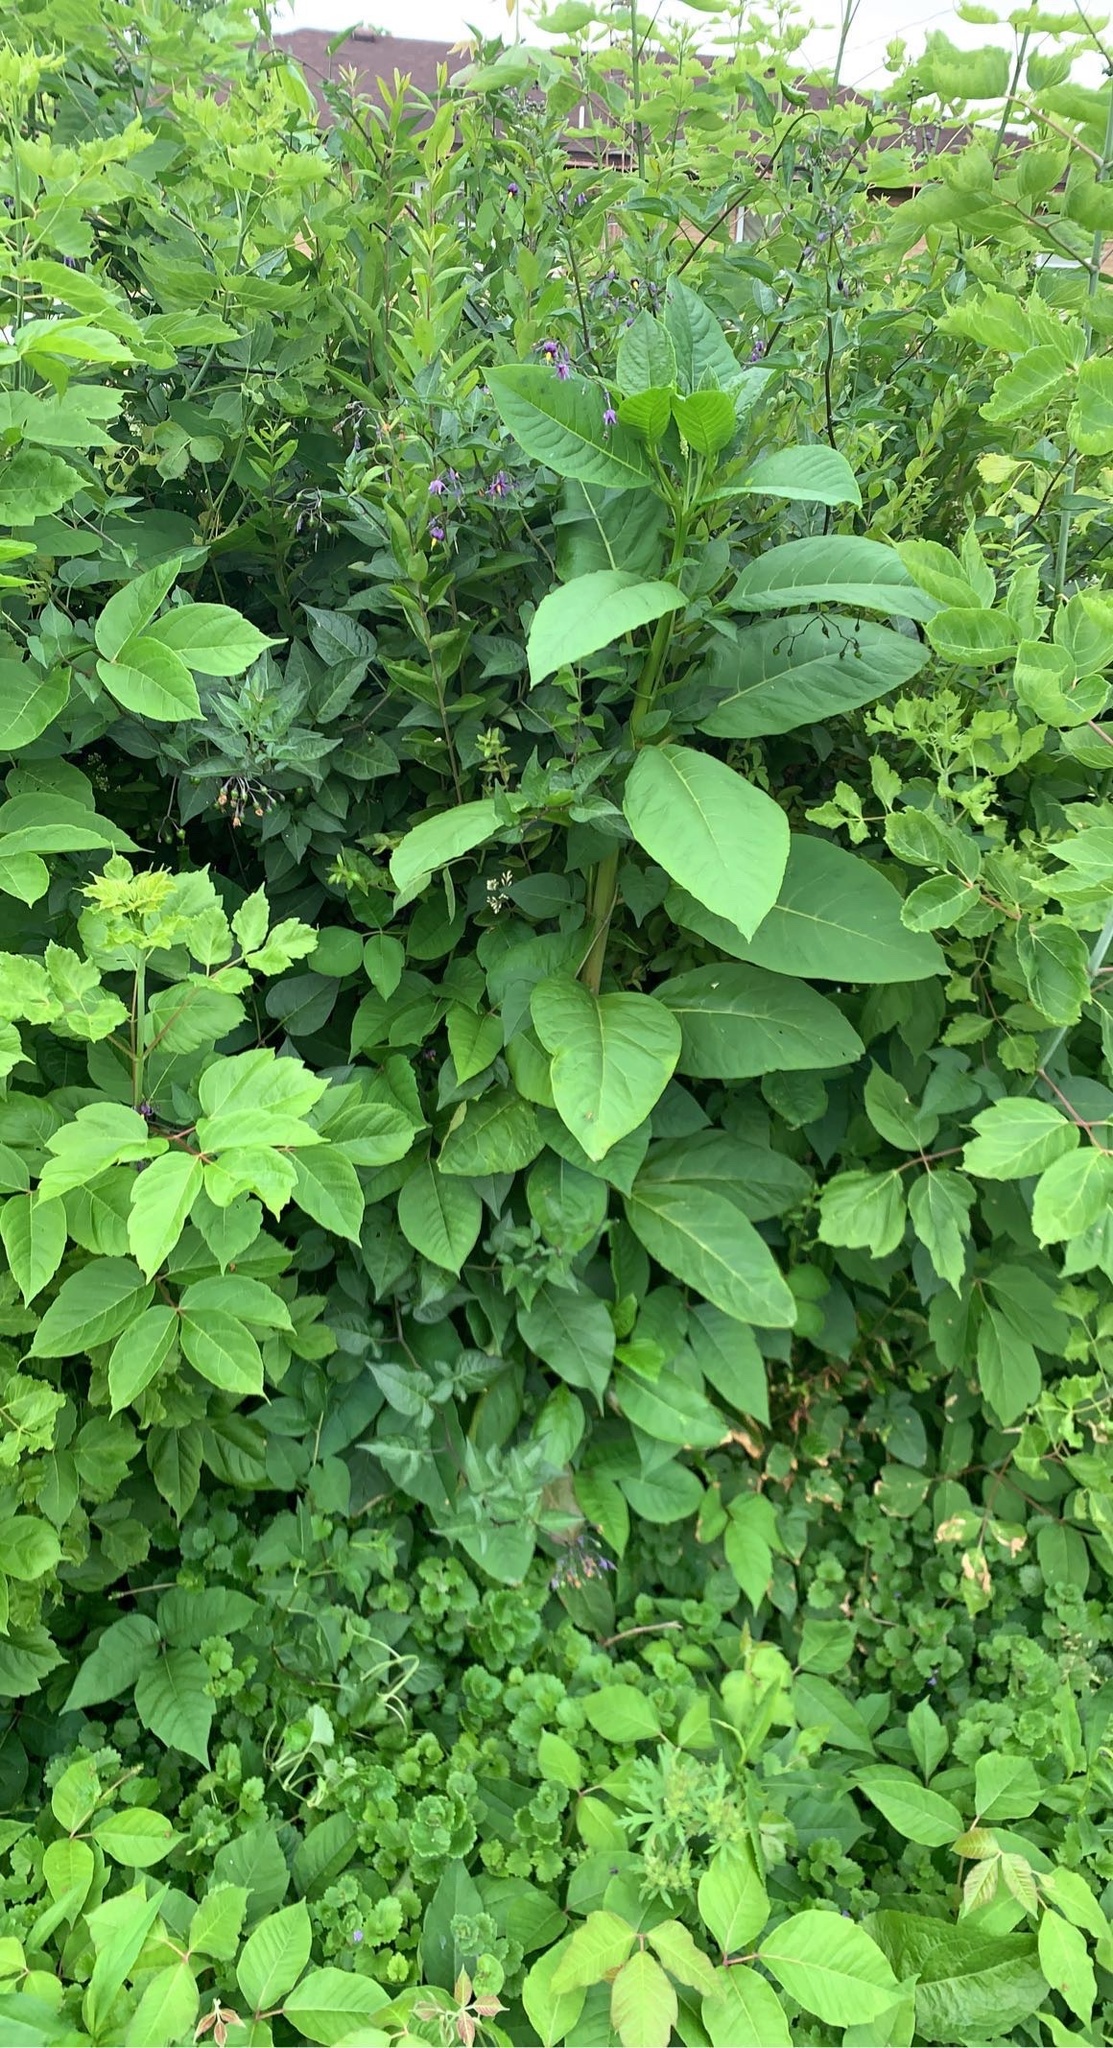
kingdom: Plantae
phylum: Tracheophyta
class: Magnoliopsida
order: Solanales
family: Solanaceae
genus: Solanum
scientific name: Solanum dulcamara
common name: Climbing nightshade
